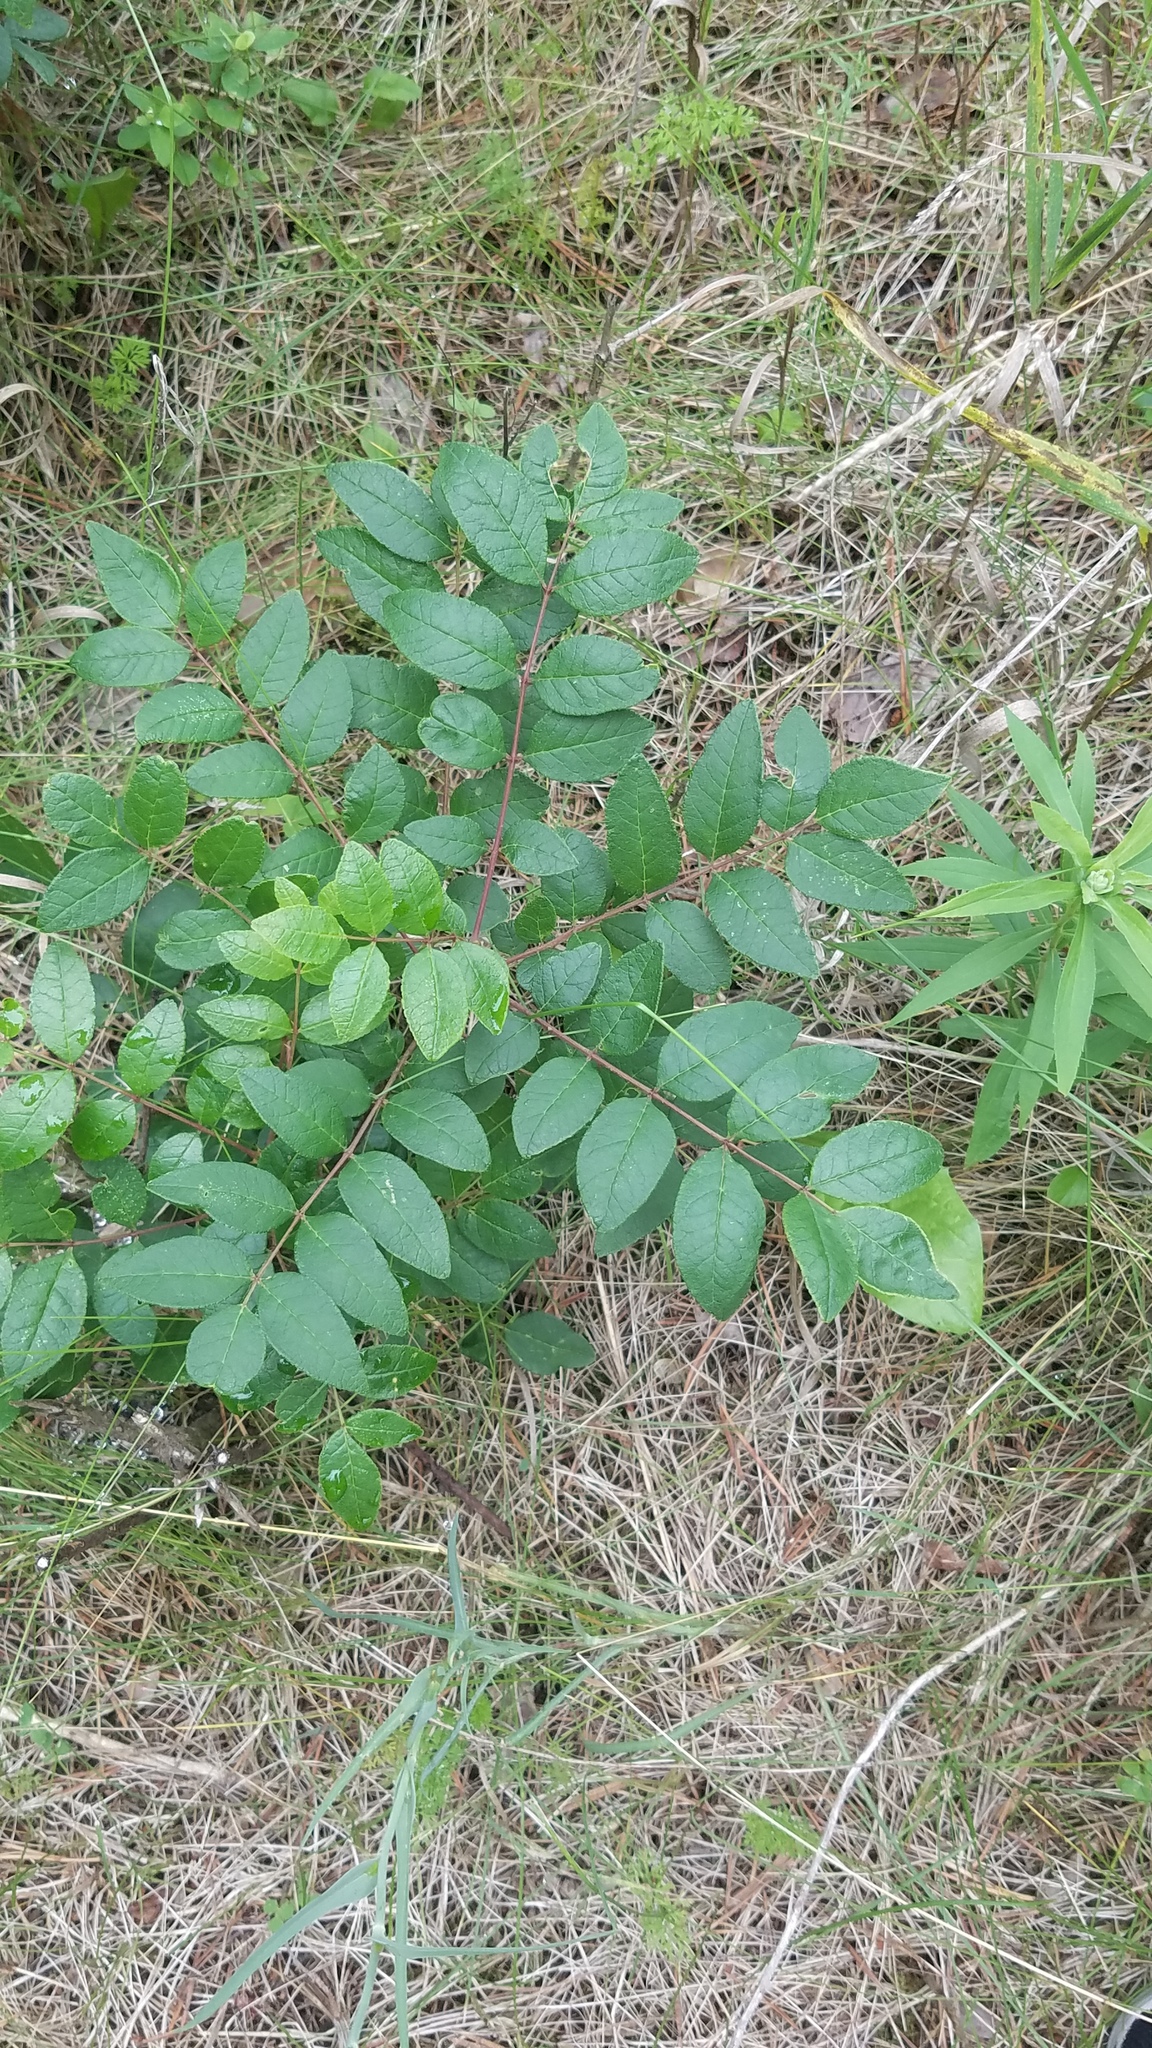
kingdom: Plantae
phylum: Tracheophyta
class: Magnoliopsida
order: Sapindales
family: Rutaceae
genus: Zanthoxylum
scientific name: Zanthoxylum americanum
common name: Northern prickly-ash
